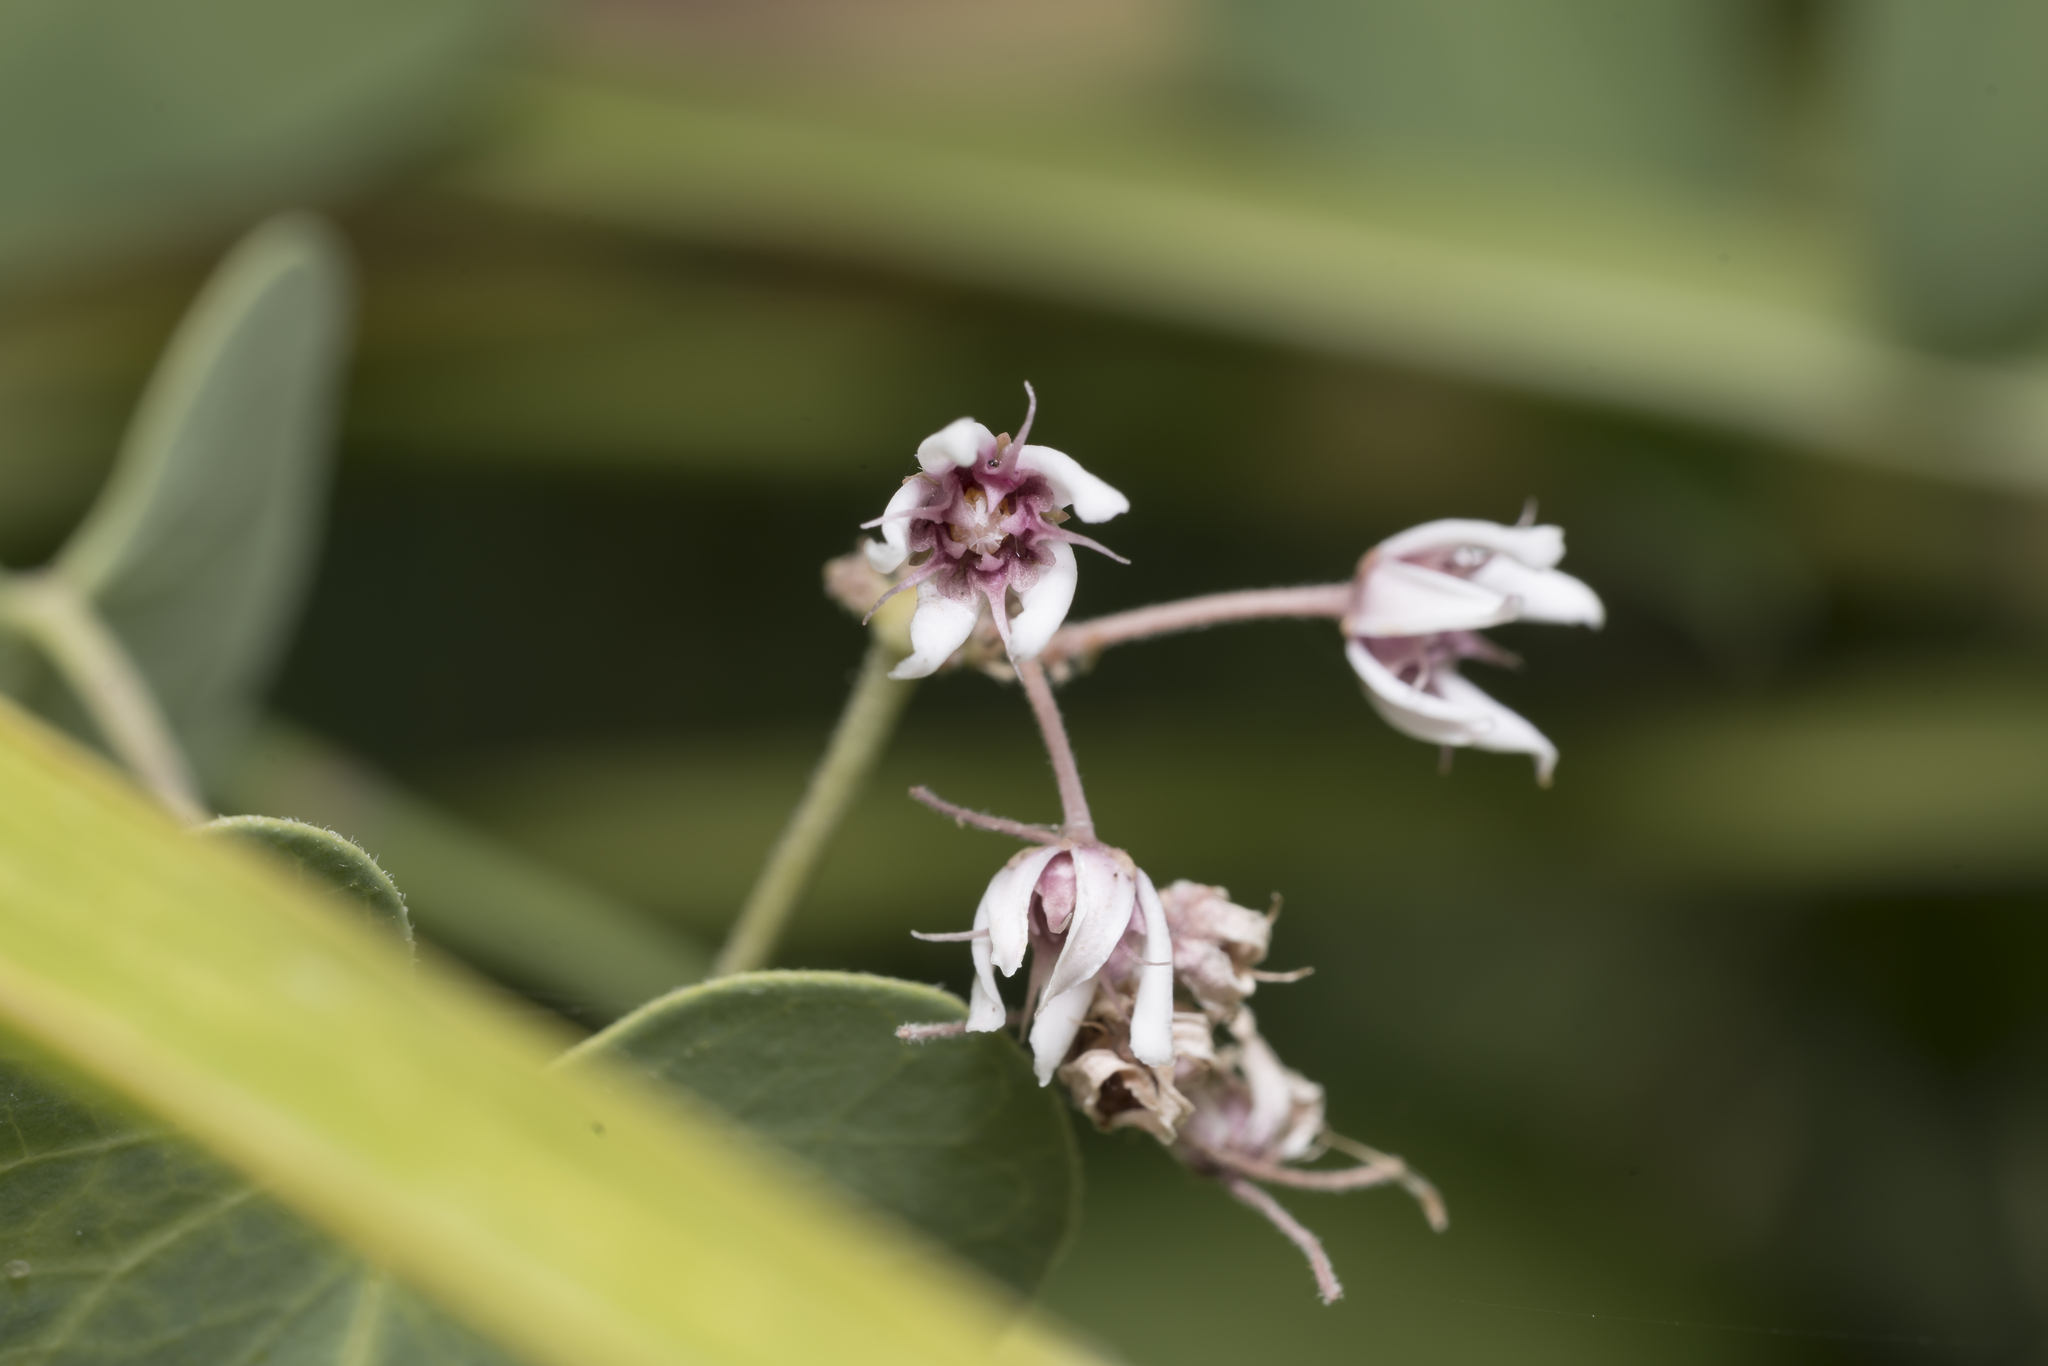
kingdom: Plantae
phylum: Tracheophyta
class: Magnoliopsida
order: Gentianales
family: Apocynaceae
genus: Cynanchum
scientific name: Cynanchum acutum
